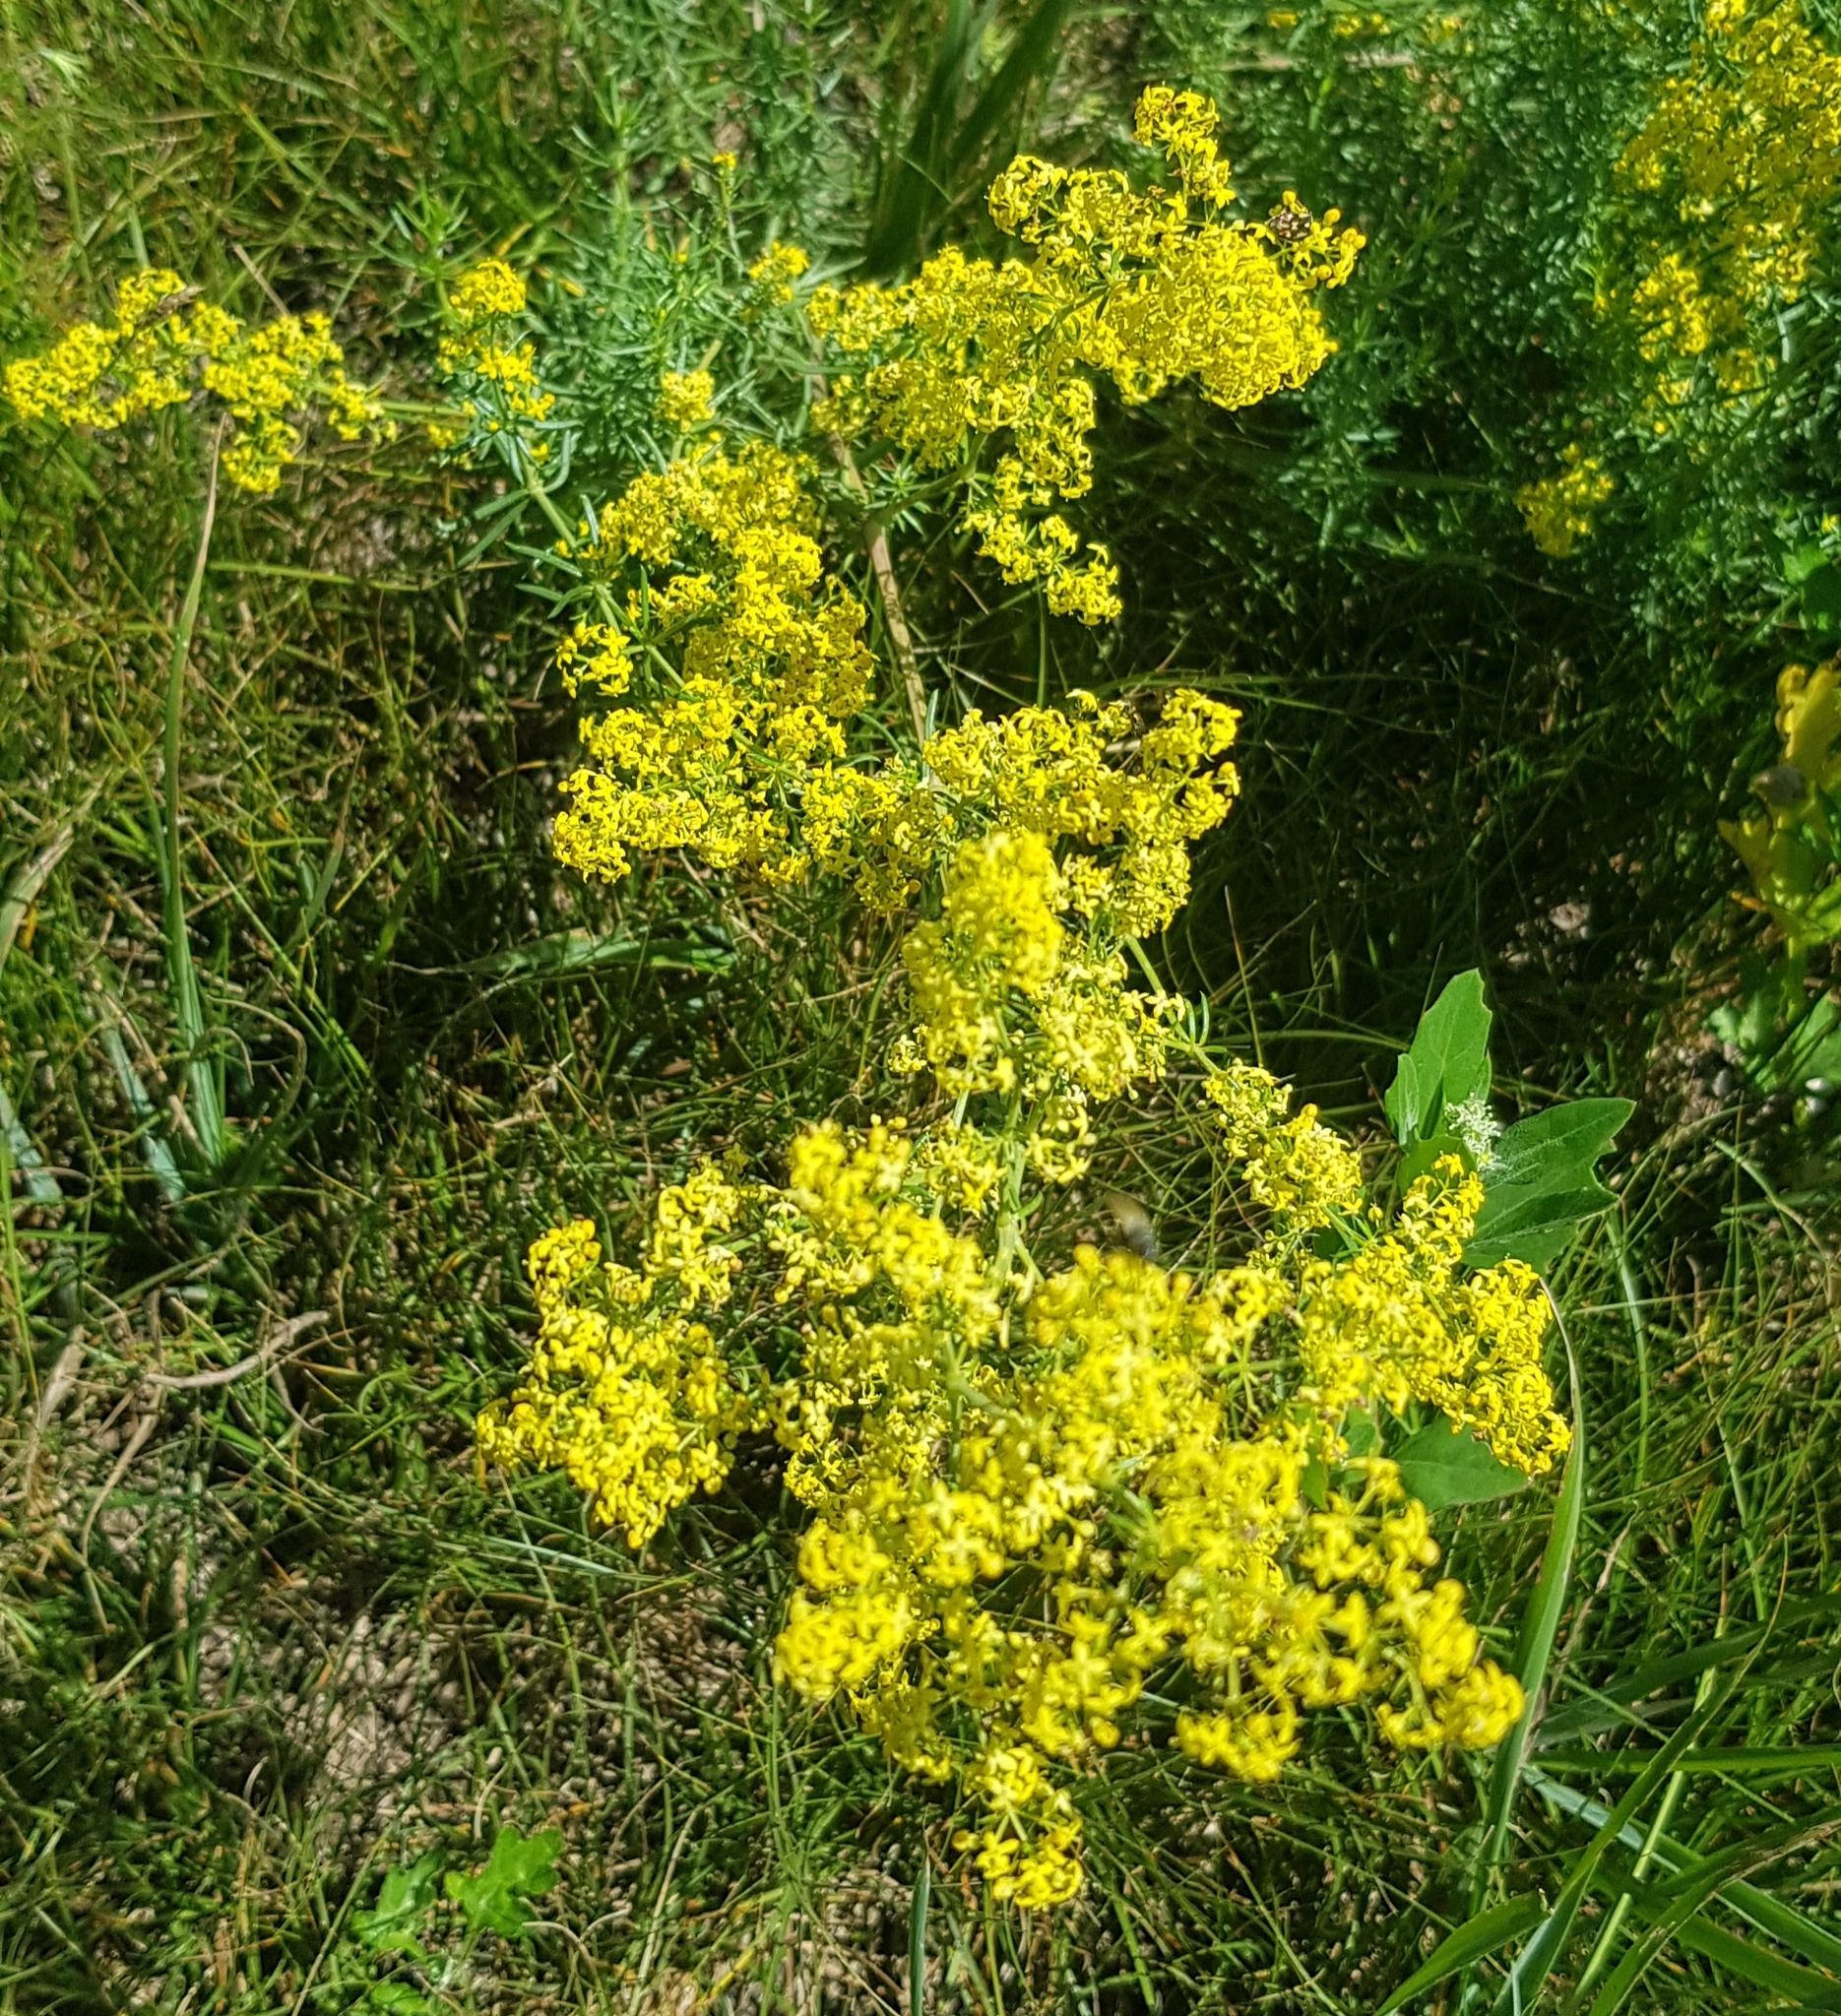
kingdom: Plantae
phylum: Tracheophyta
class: Magnoliopsida
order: Gentianales
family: Rubiaceae
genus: Galium
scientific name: Galium verum
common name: Lady's bedstraw
